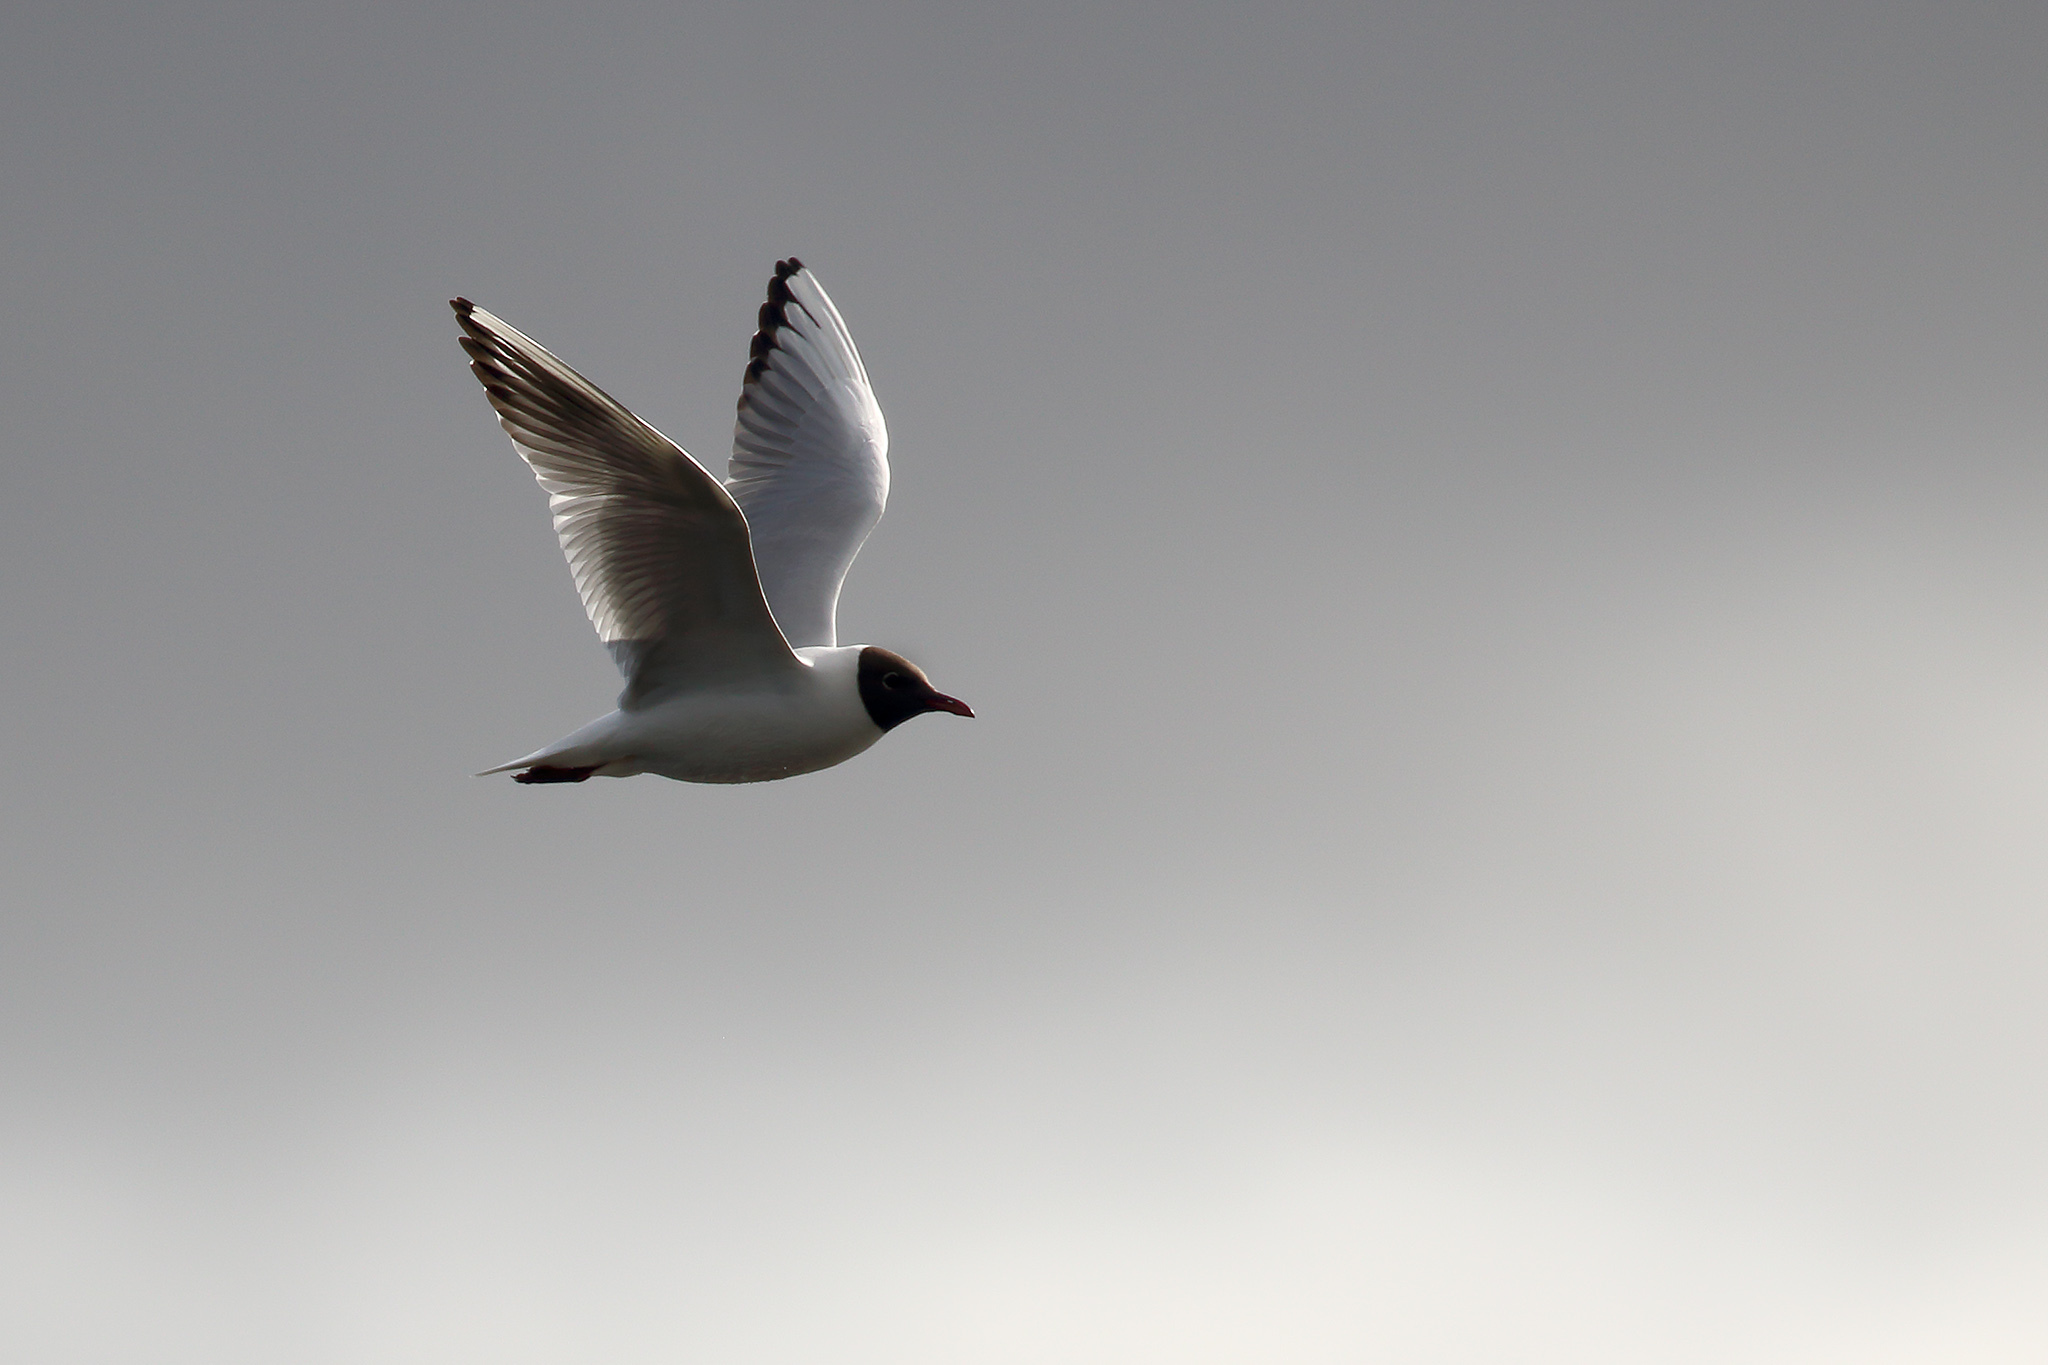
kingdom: Animalia
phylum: Chordata
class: Aves
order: Charadriiformes
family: Laridae
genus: Chroicocephalus
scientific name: Chroicocephalus ridibundus
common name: Black-headed gull
